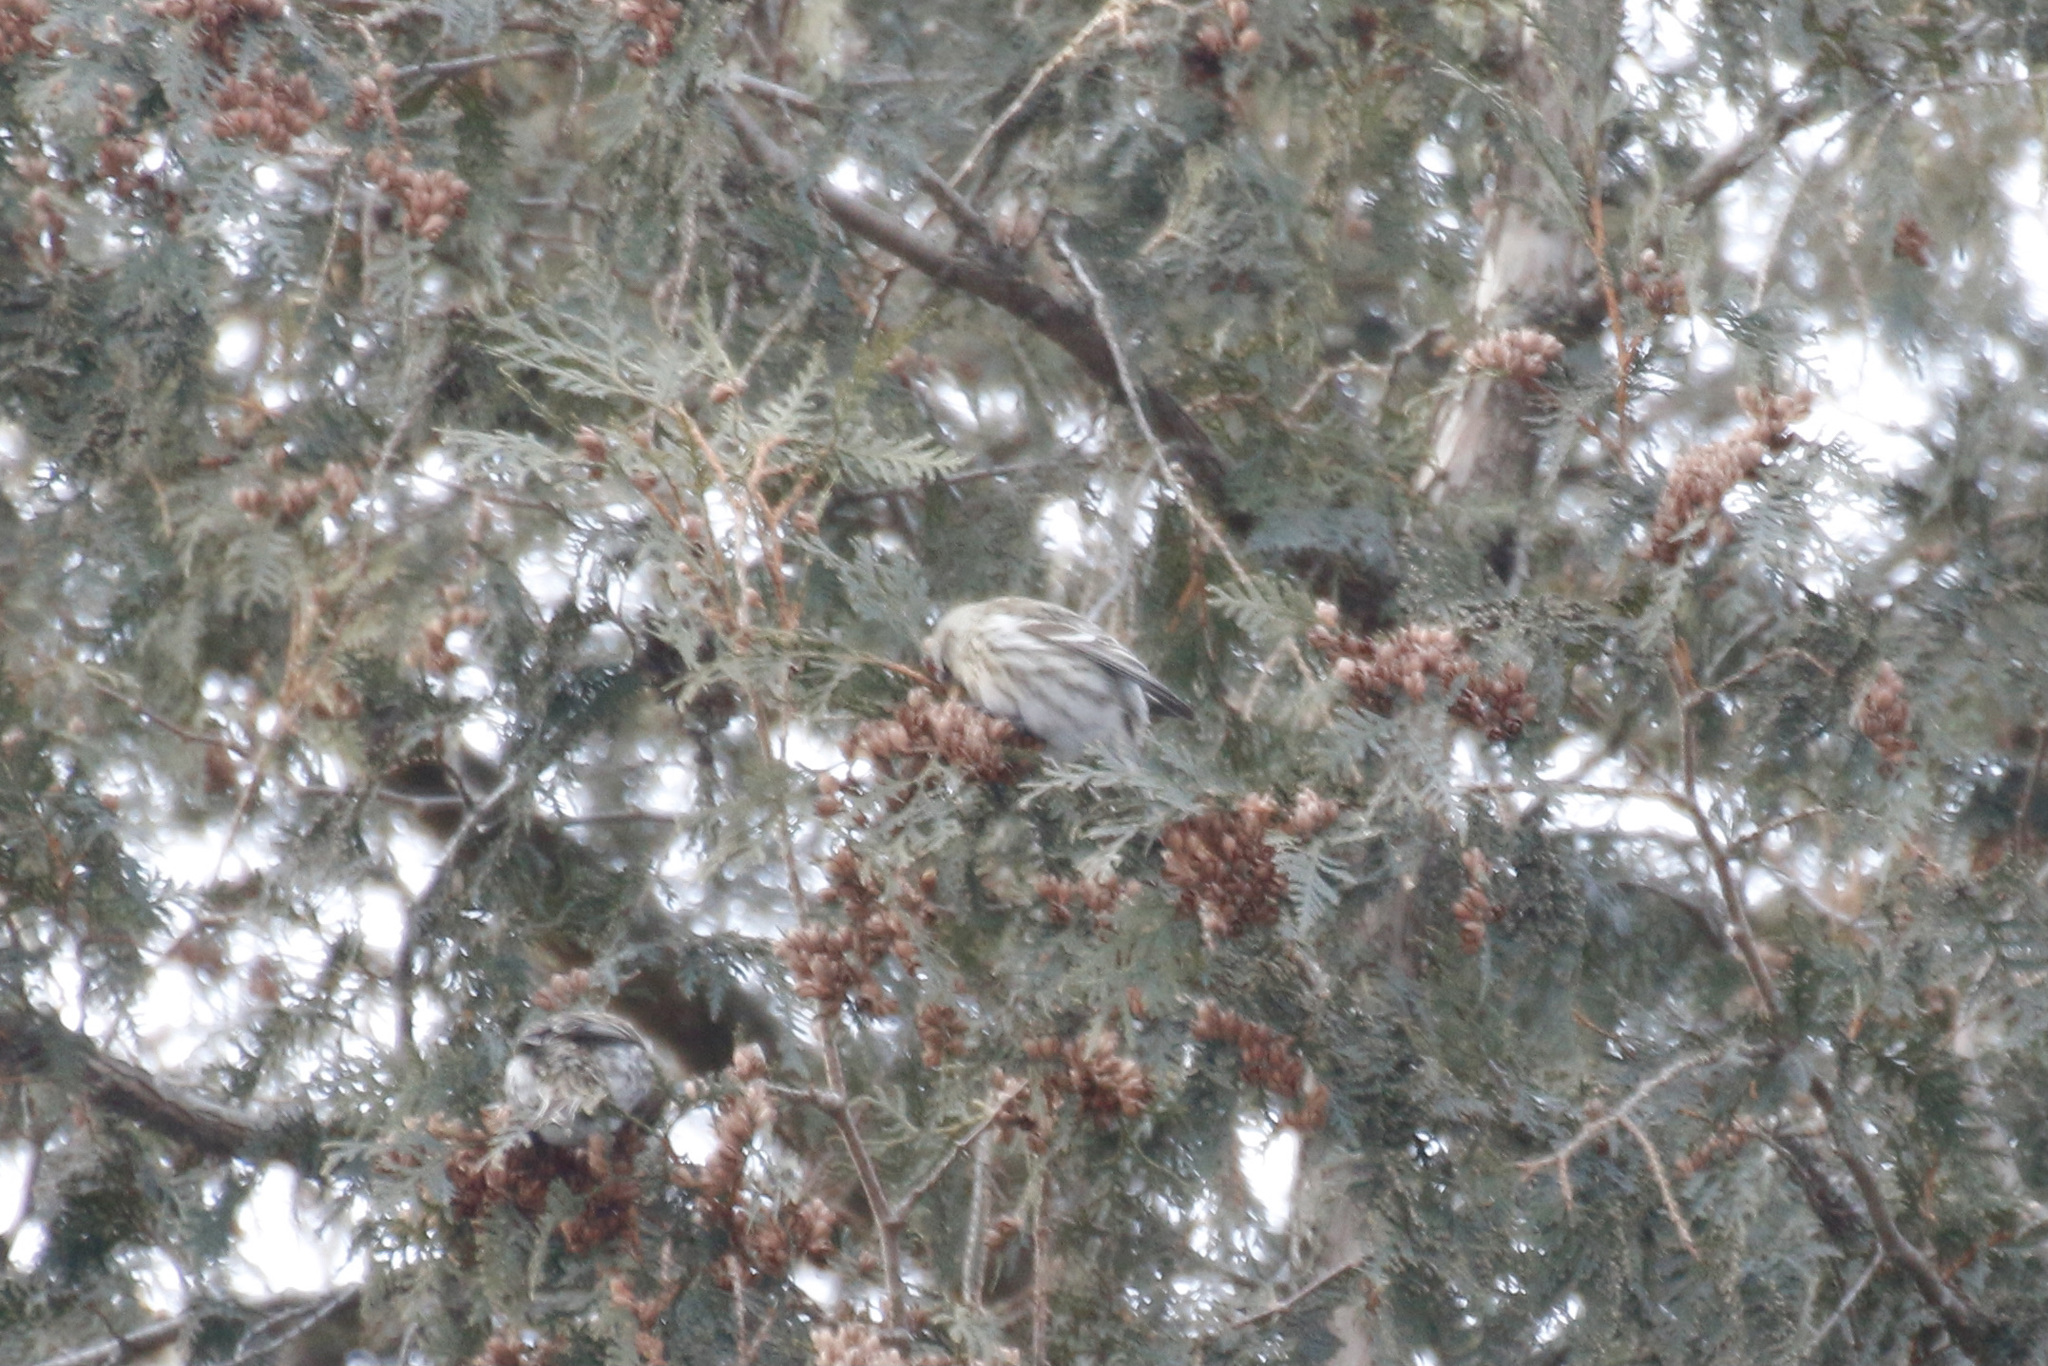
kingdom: Animalia
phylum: Chordata
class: Aves
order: Passeriformes
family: Fringillidae
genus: Acanthis
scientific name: Acanthis flammea
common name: Common redpoll
